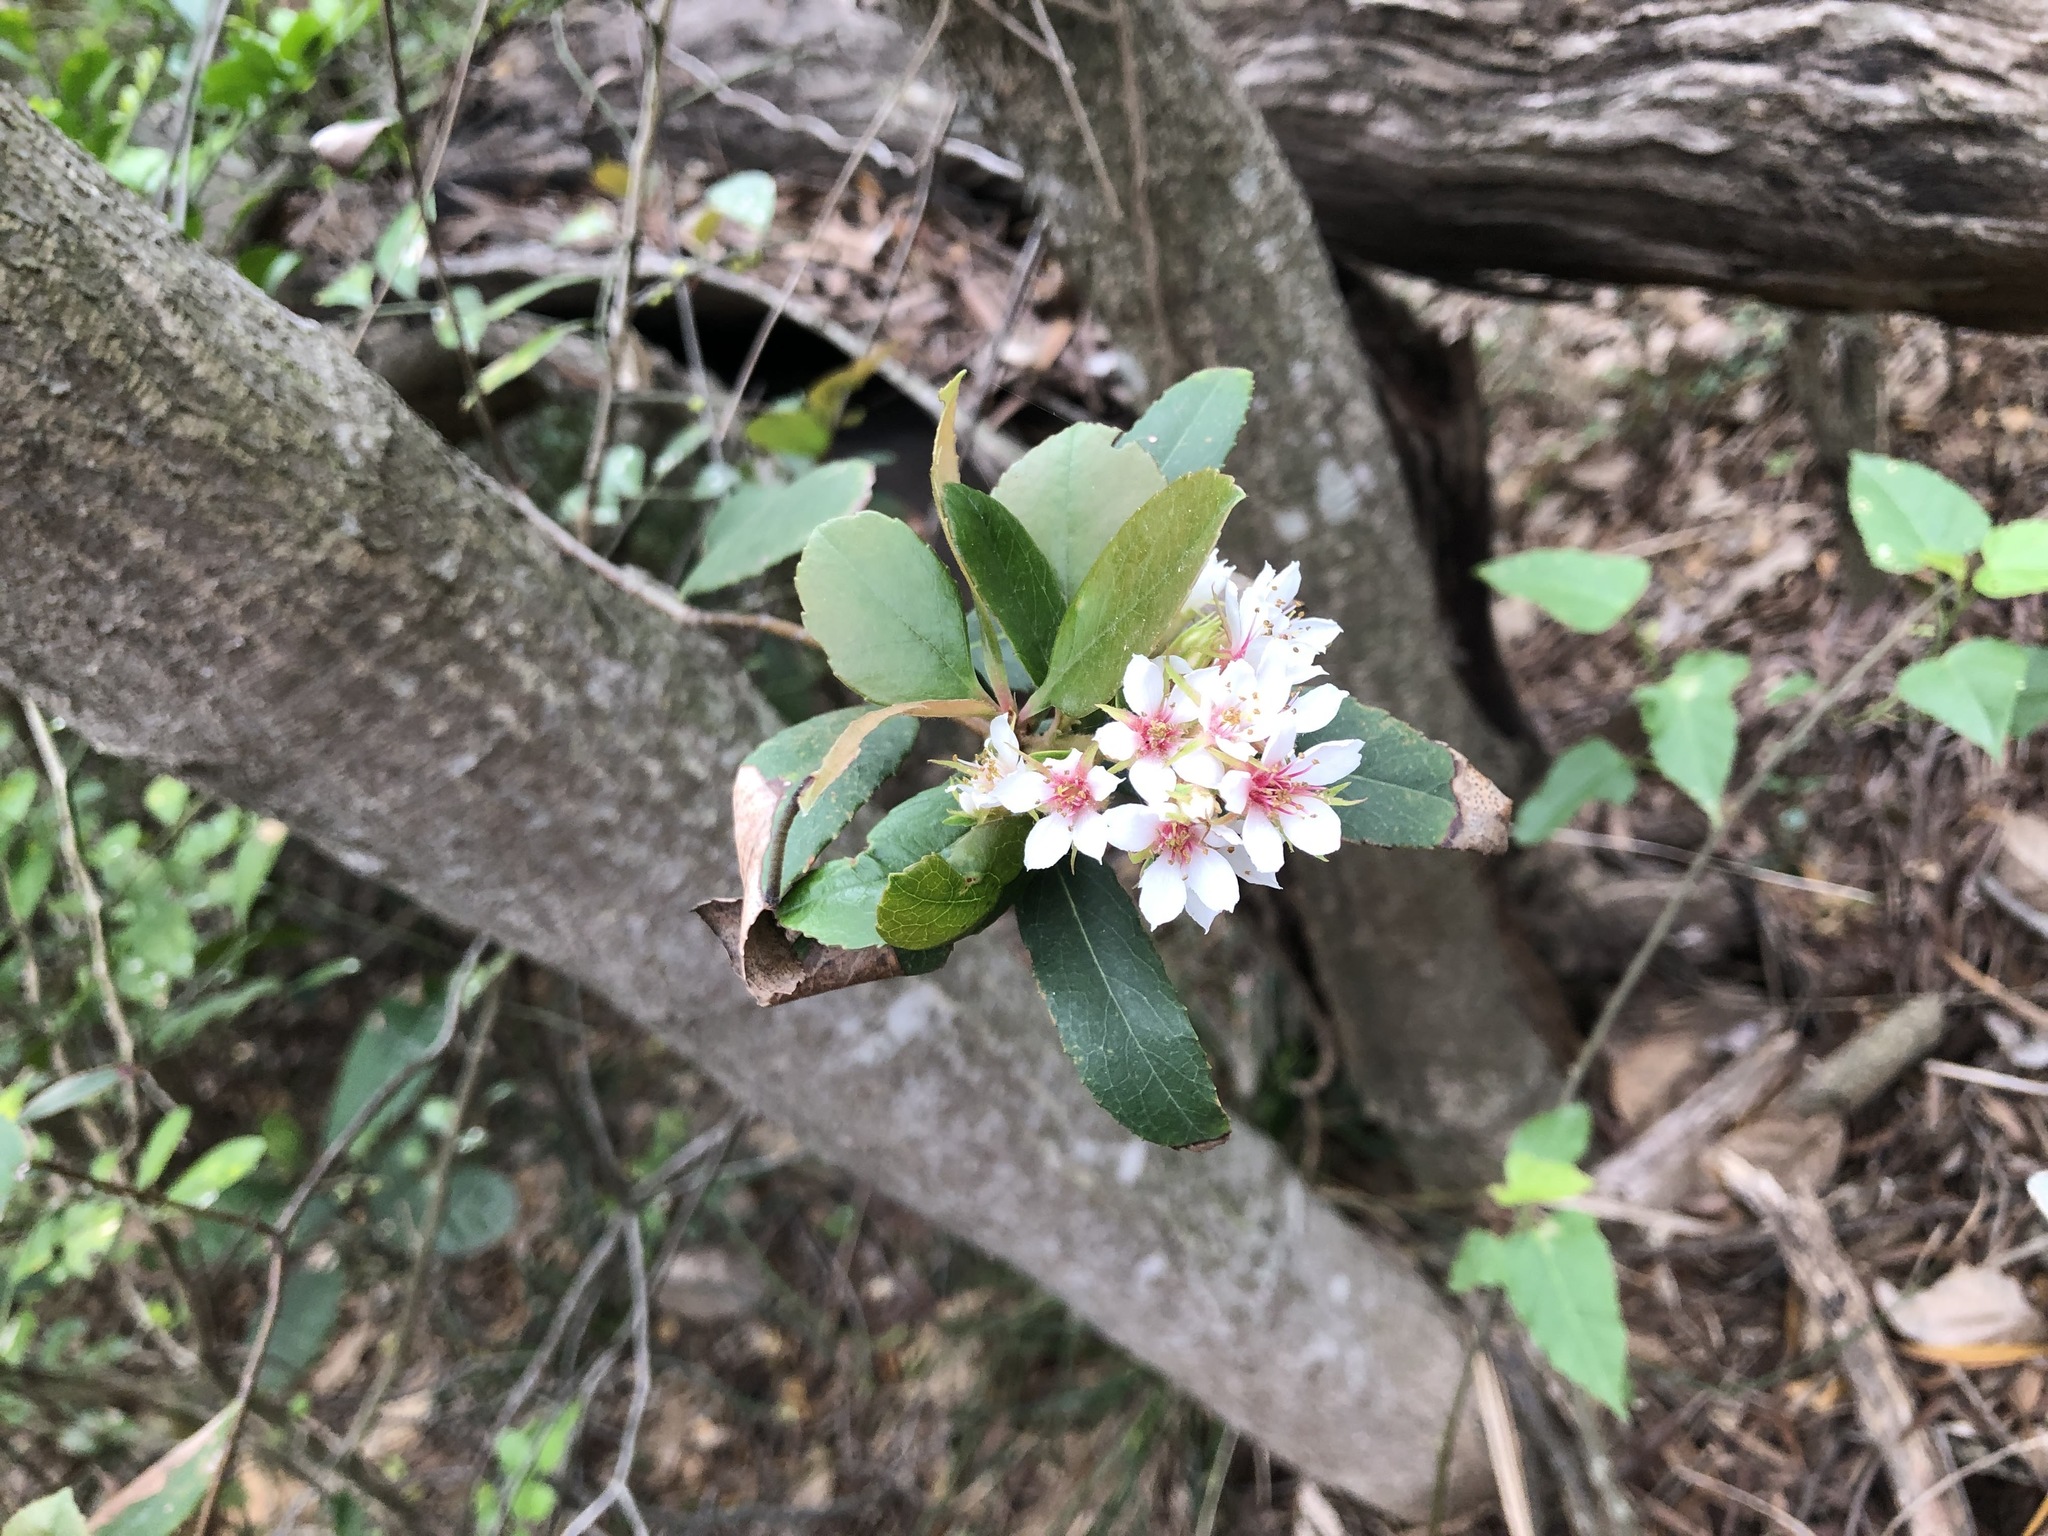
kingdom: Plantae
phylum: Tracheophyta
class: Magnoliopsida
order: Rosales
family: Rosaceae
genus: Rhaphiolepis
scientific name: Rhaphiolepis indica
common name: India-hawthorn
